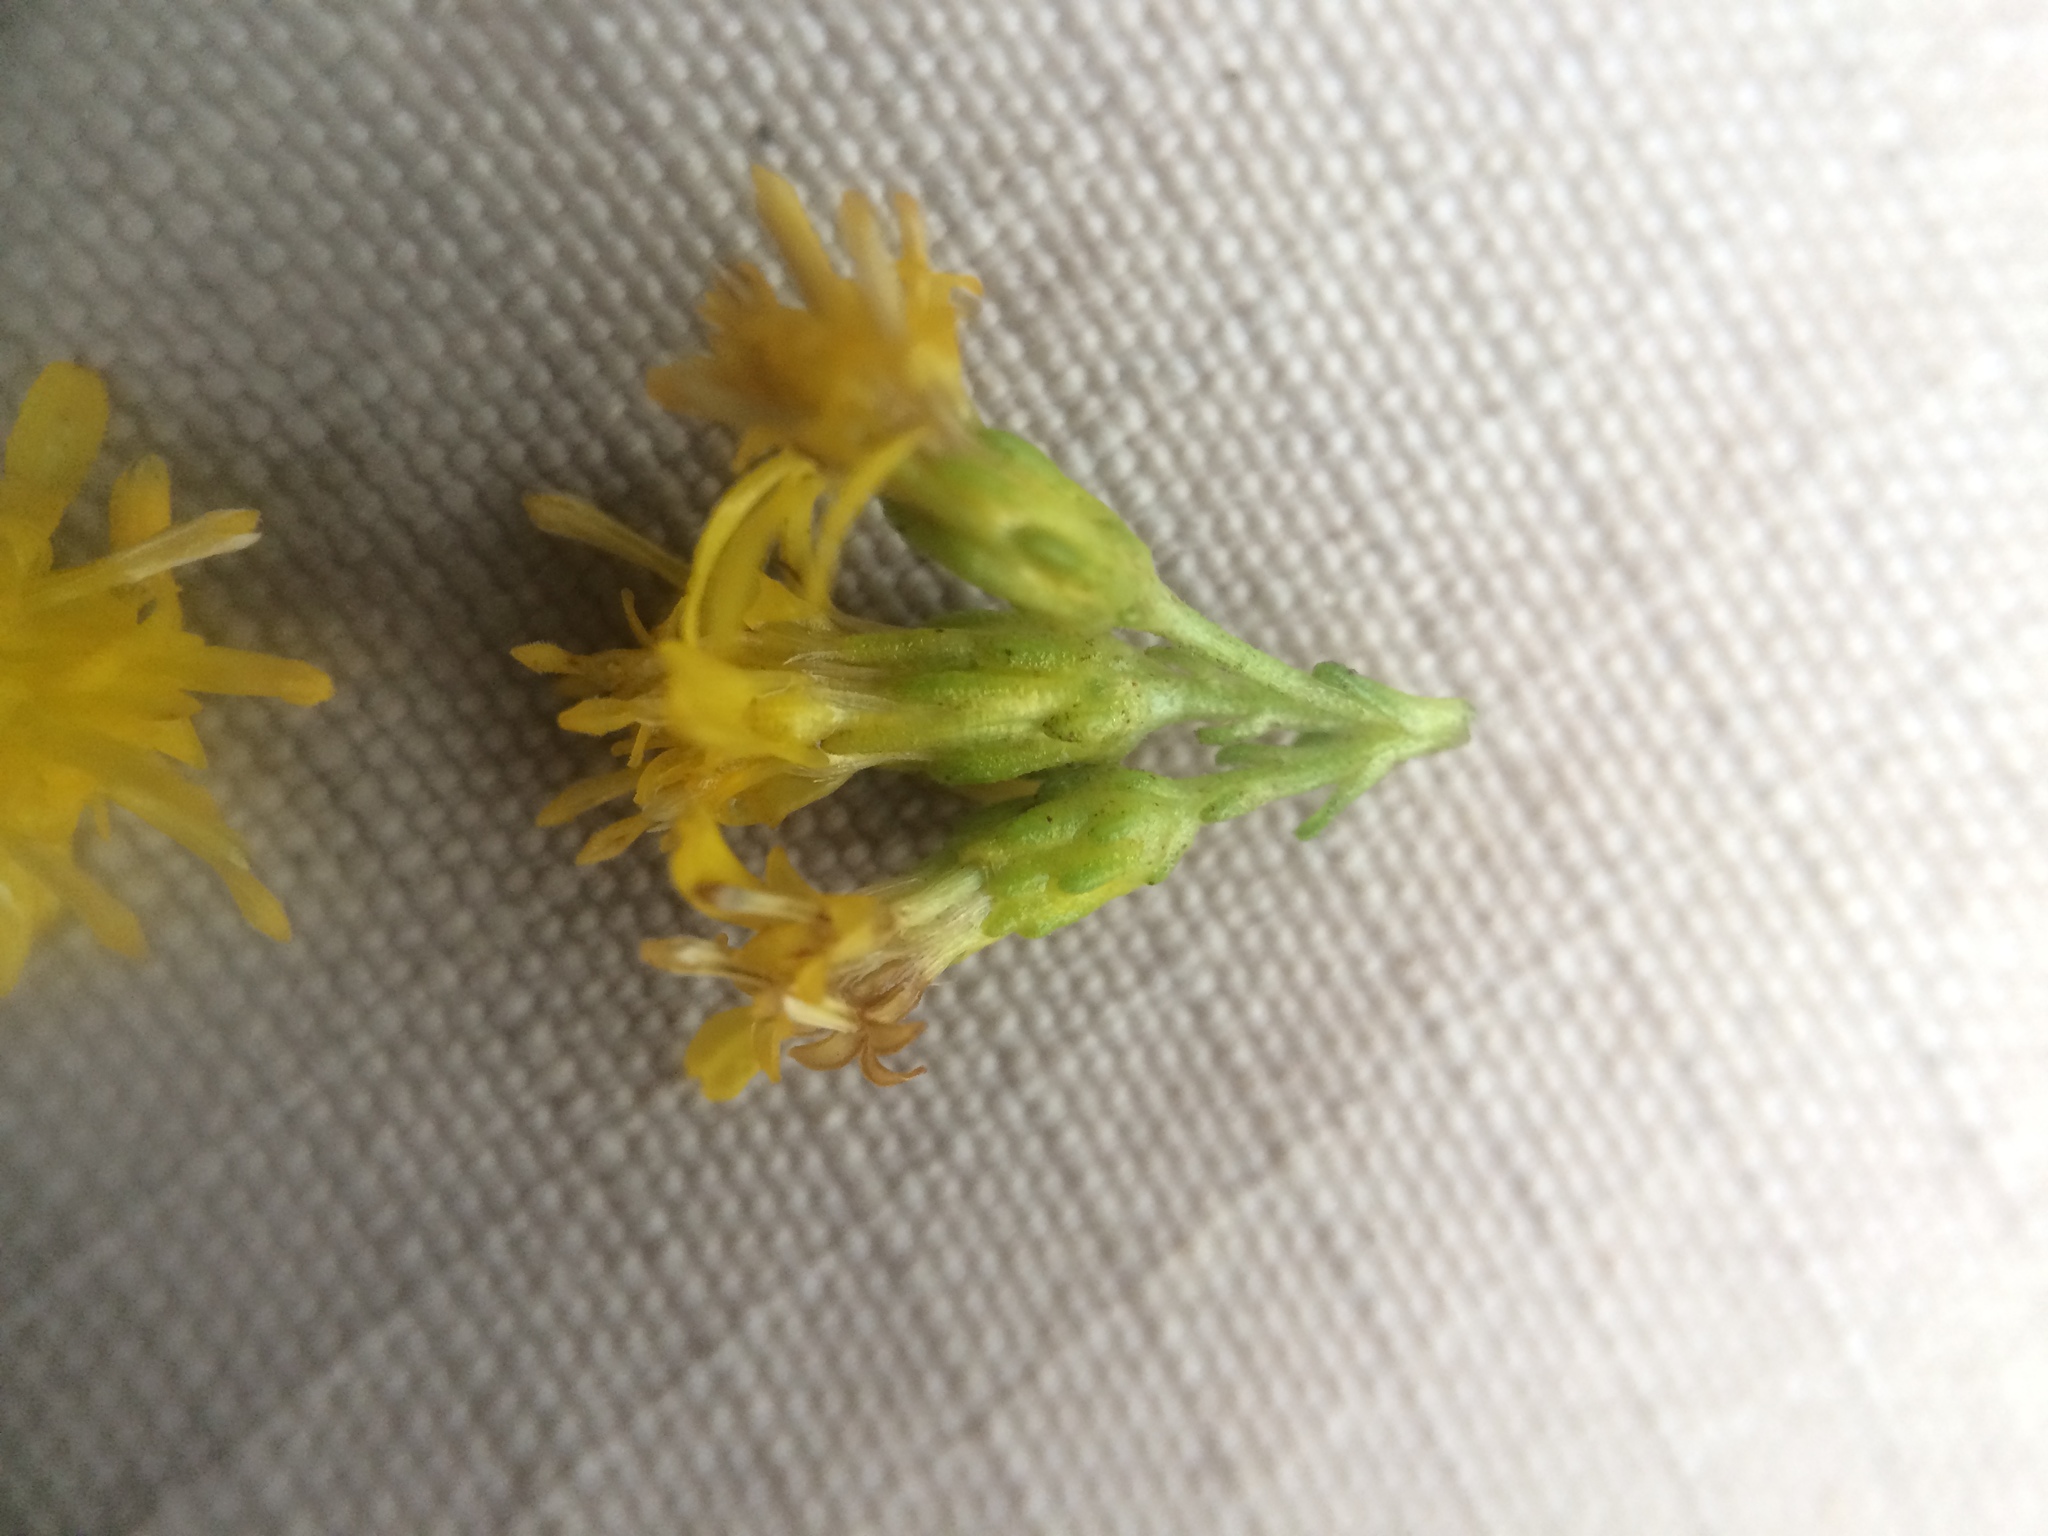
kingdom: Plantae
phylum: Tracheophyta
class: Magnoliopsida
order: Asterales
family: Asteraceae
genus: Solidago
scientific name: Solidago randii
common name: Rand's goldenrod
